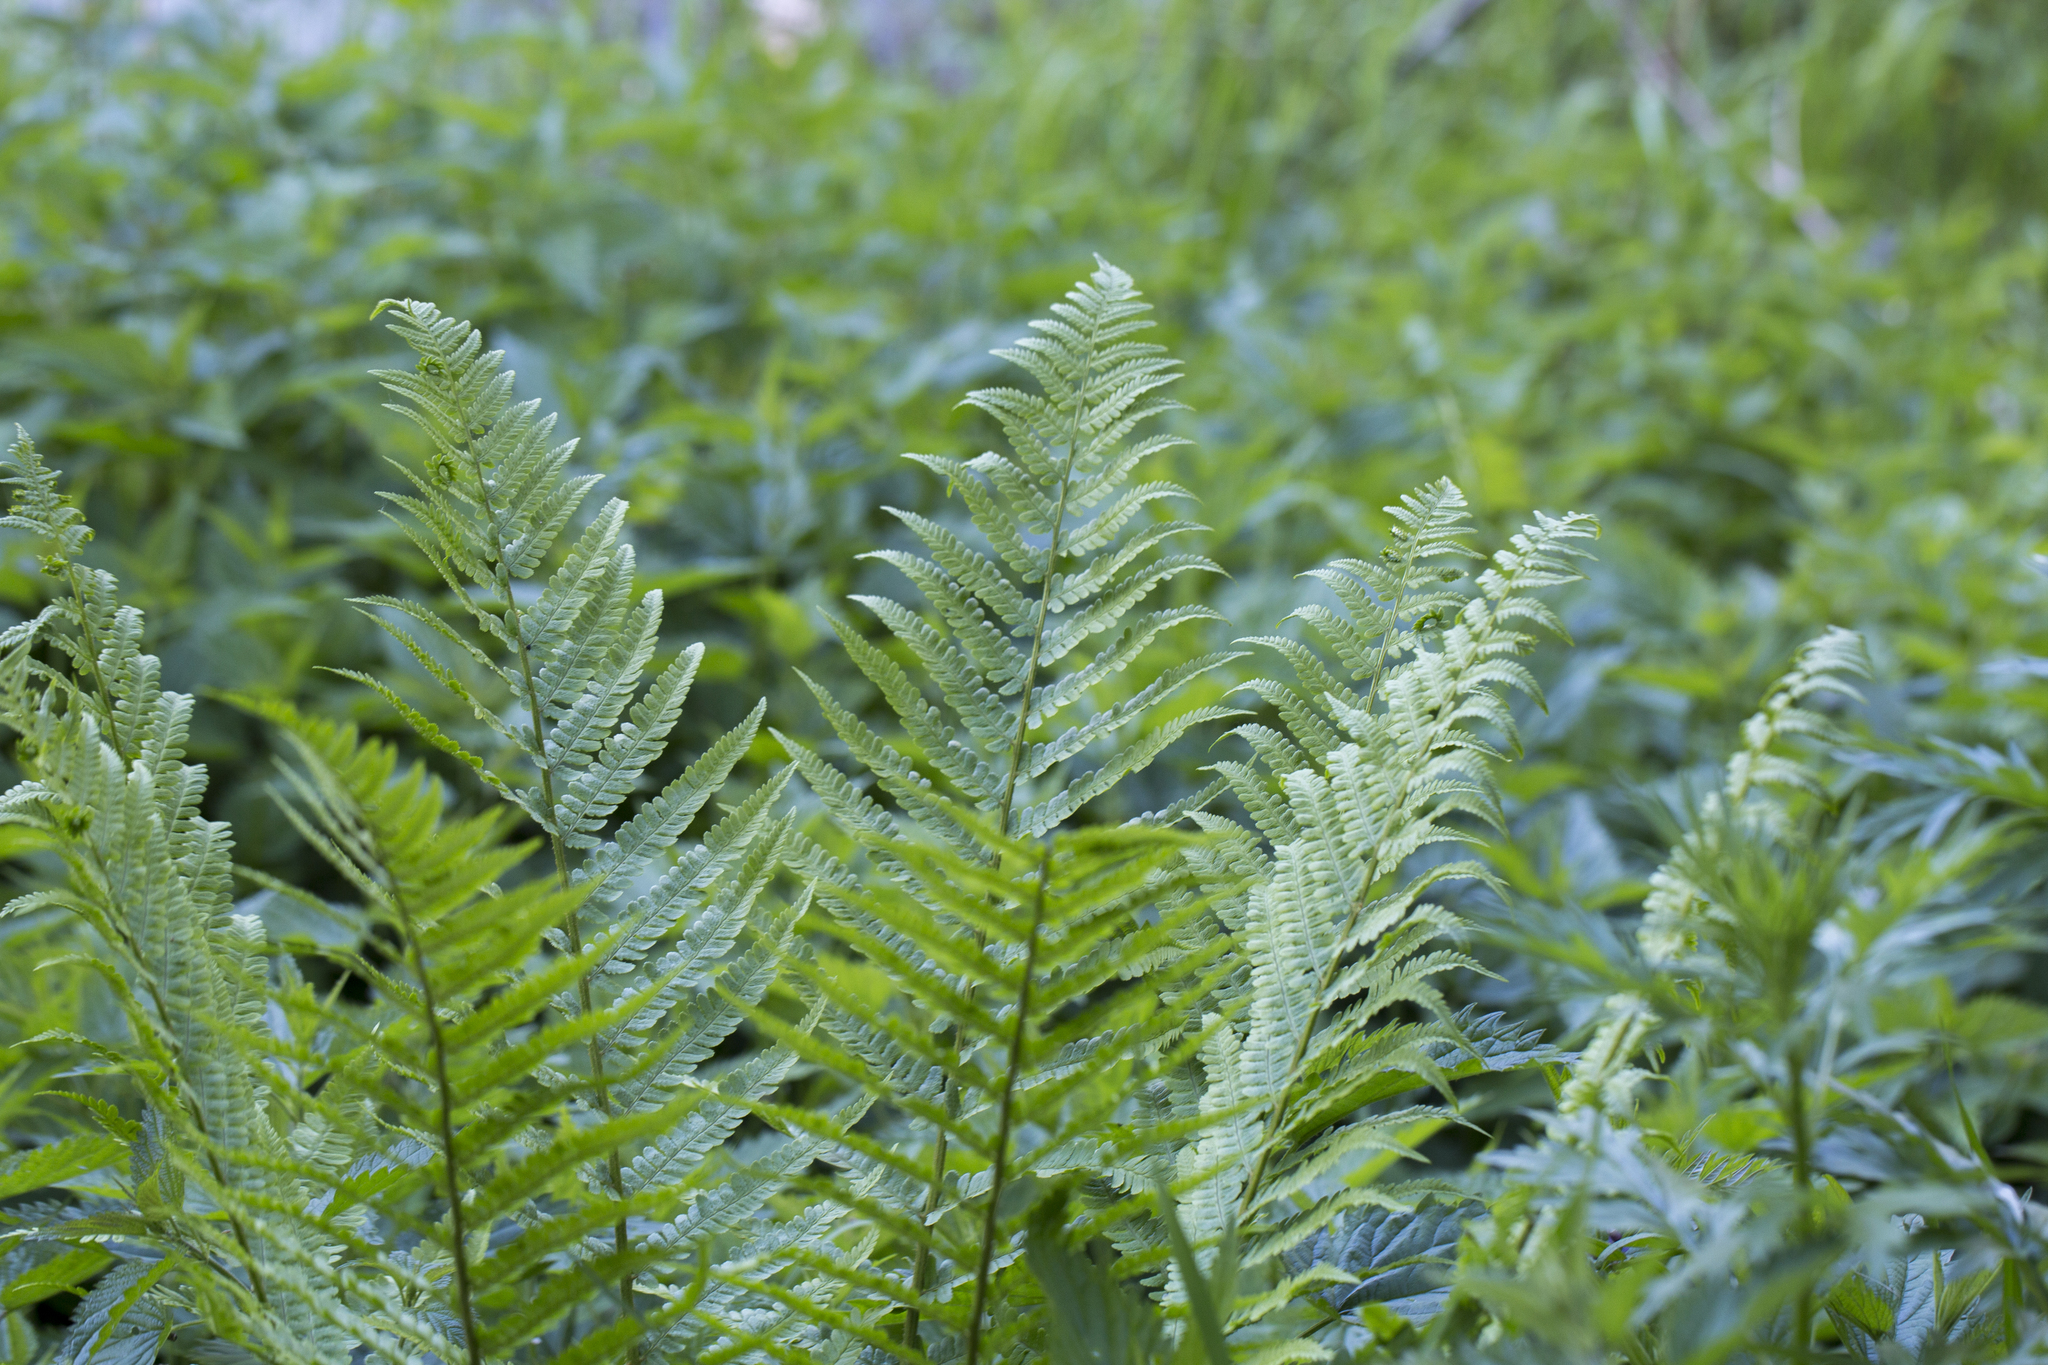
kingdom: Plantae
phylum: Tracheophyta
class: Polypodiopsida
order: Polypodiales
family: Dryopteridaceae
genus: Dryopteris
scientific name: Dryopteris filix-mas
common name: Male fern
